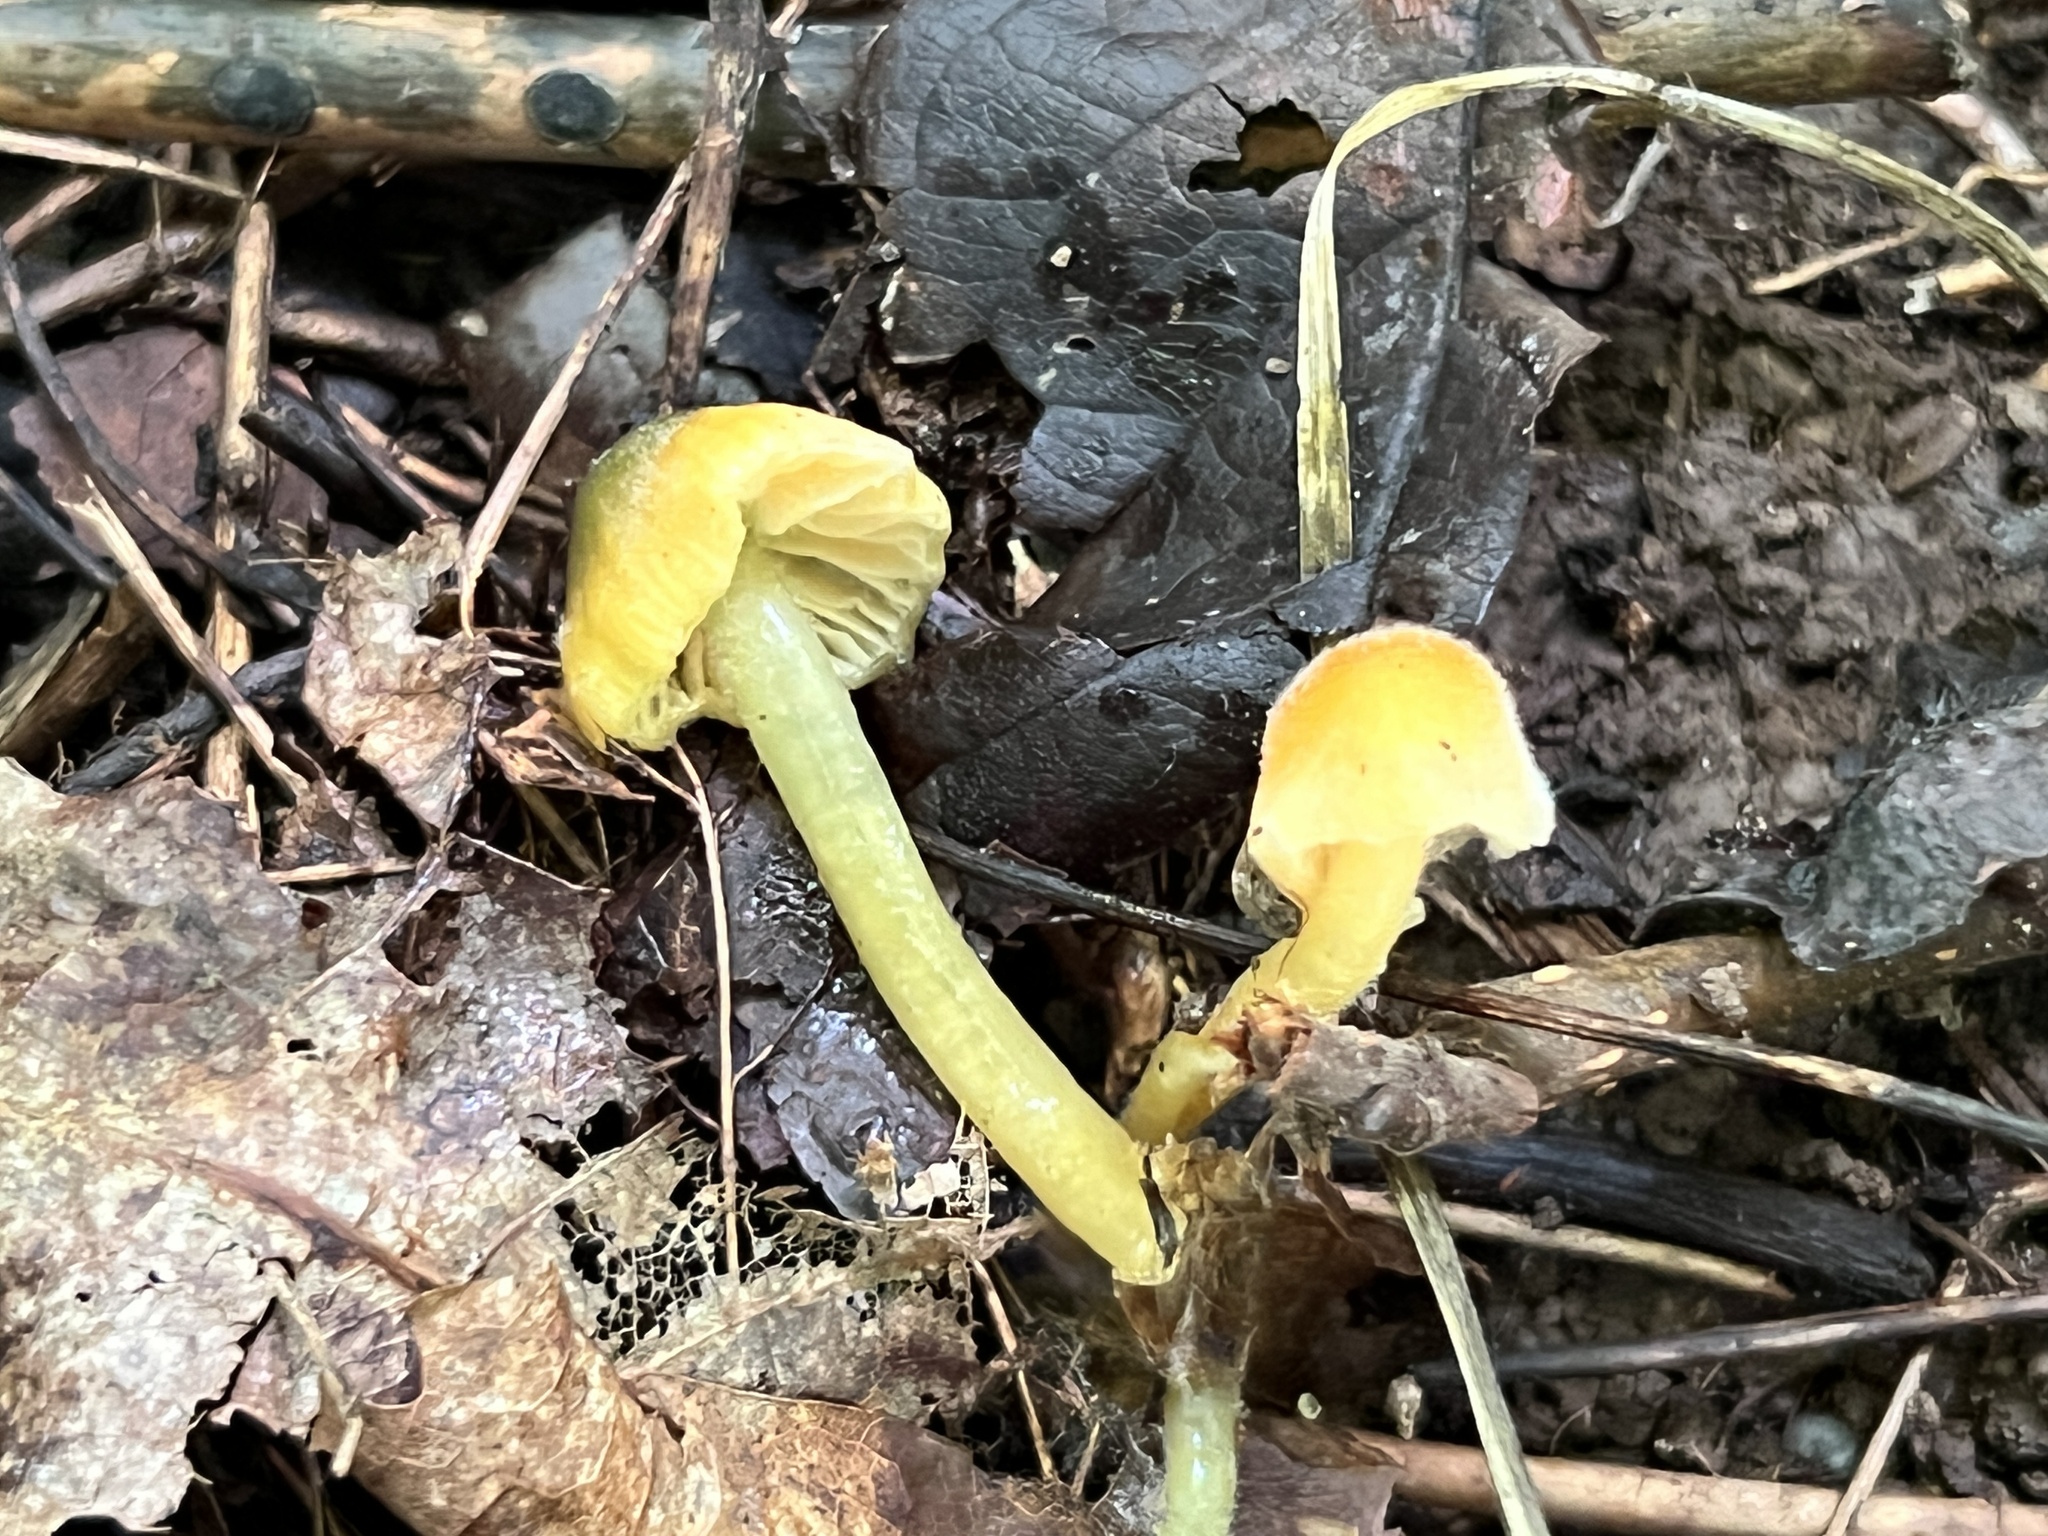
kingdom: Fungi
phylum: Basidiomycota
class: Agaricomycetes
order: Agaricales
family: Hygrophoraceae
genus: Gliophorus
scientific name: Gliophorus psittacinus
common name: Parrot wax-cap
